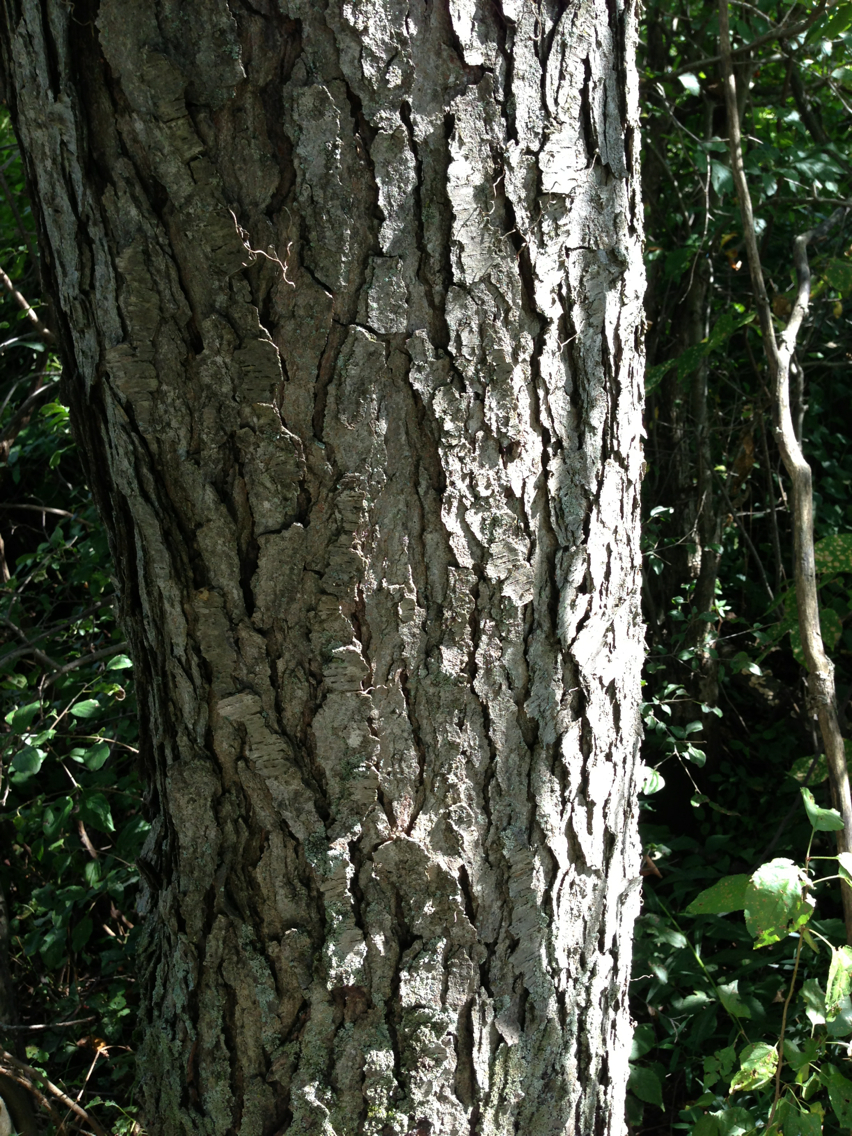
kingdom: Plantae
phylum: Tracheophyta
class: Magnoliopsida
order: Rosales
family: Rosaceae
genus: Prunus
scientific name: Prunus serotina
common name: Black cherry
